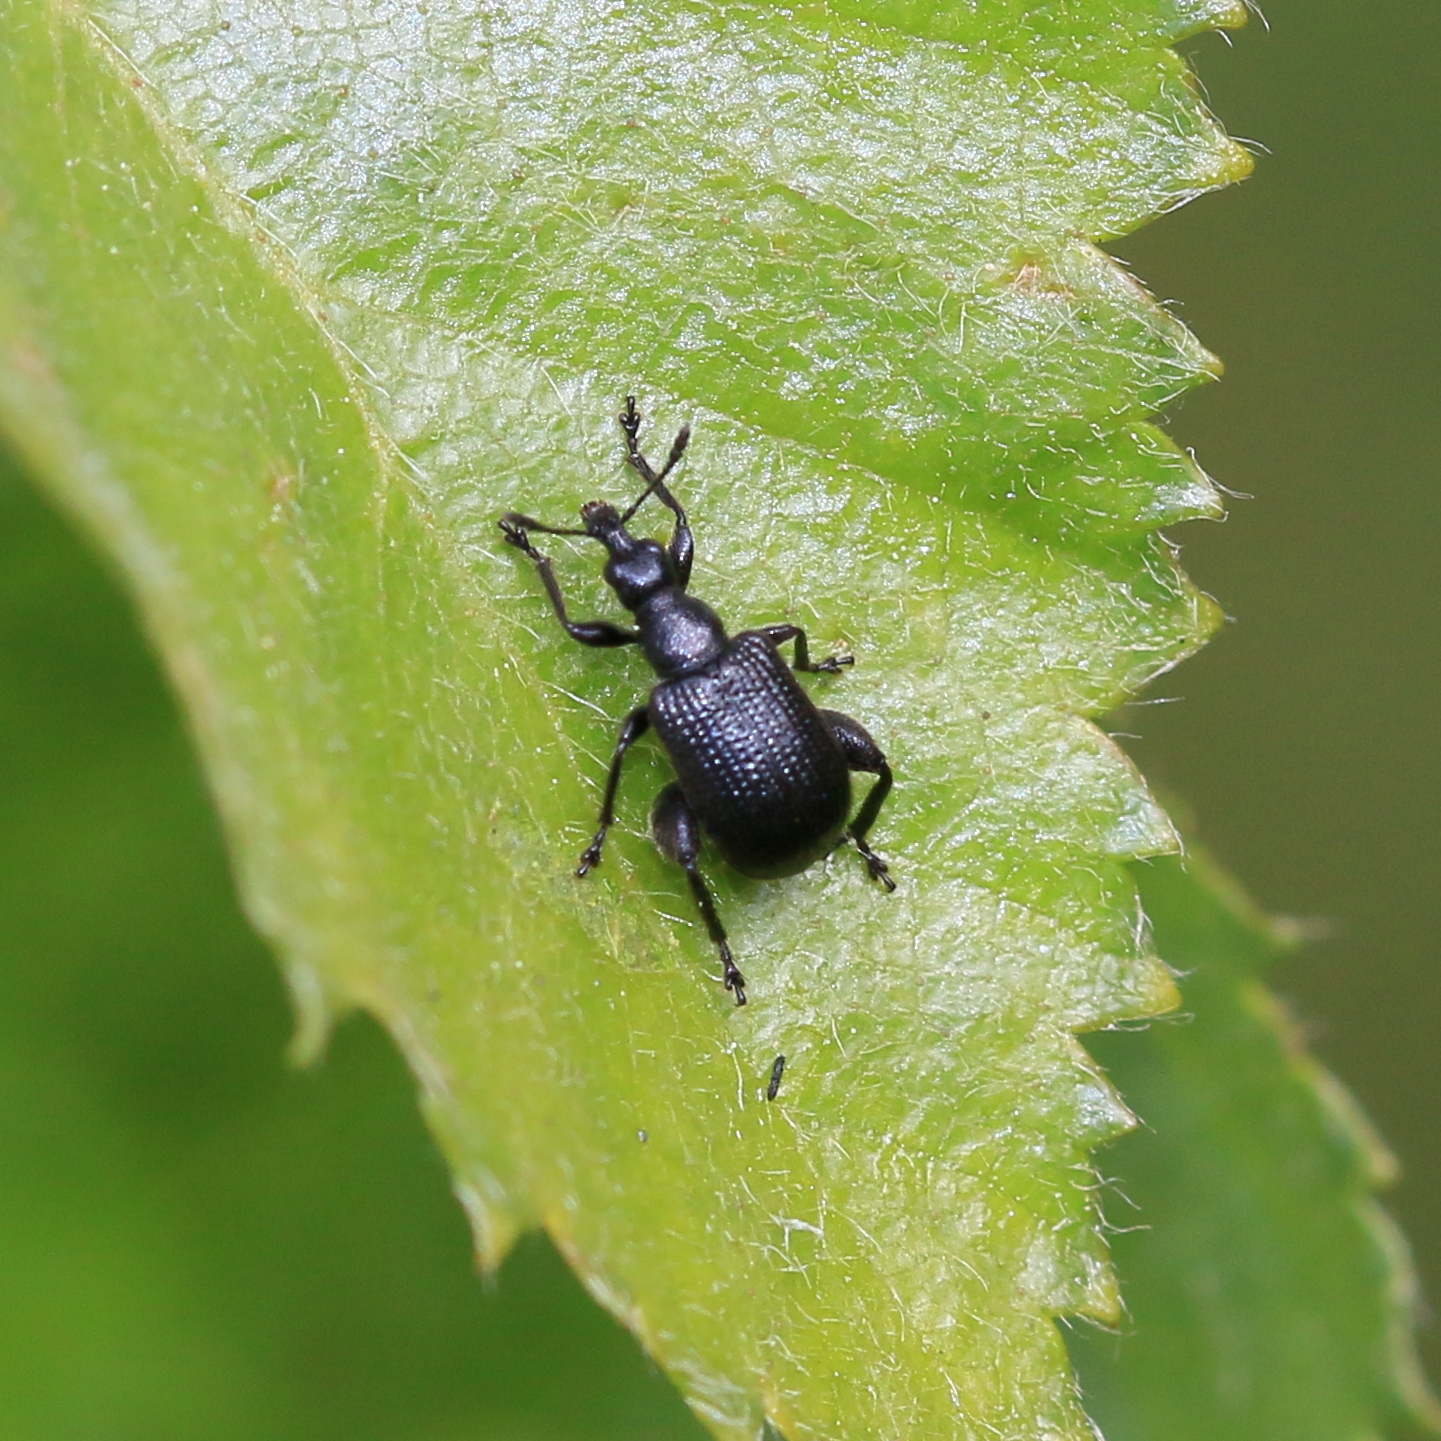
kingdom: Animalia
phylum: Arthropoda
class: Insecta
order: Coleoptera
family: Attelabidae
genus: Deporaus
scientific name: Deporaus betulae
